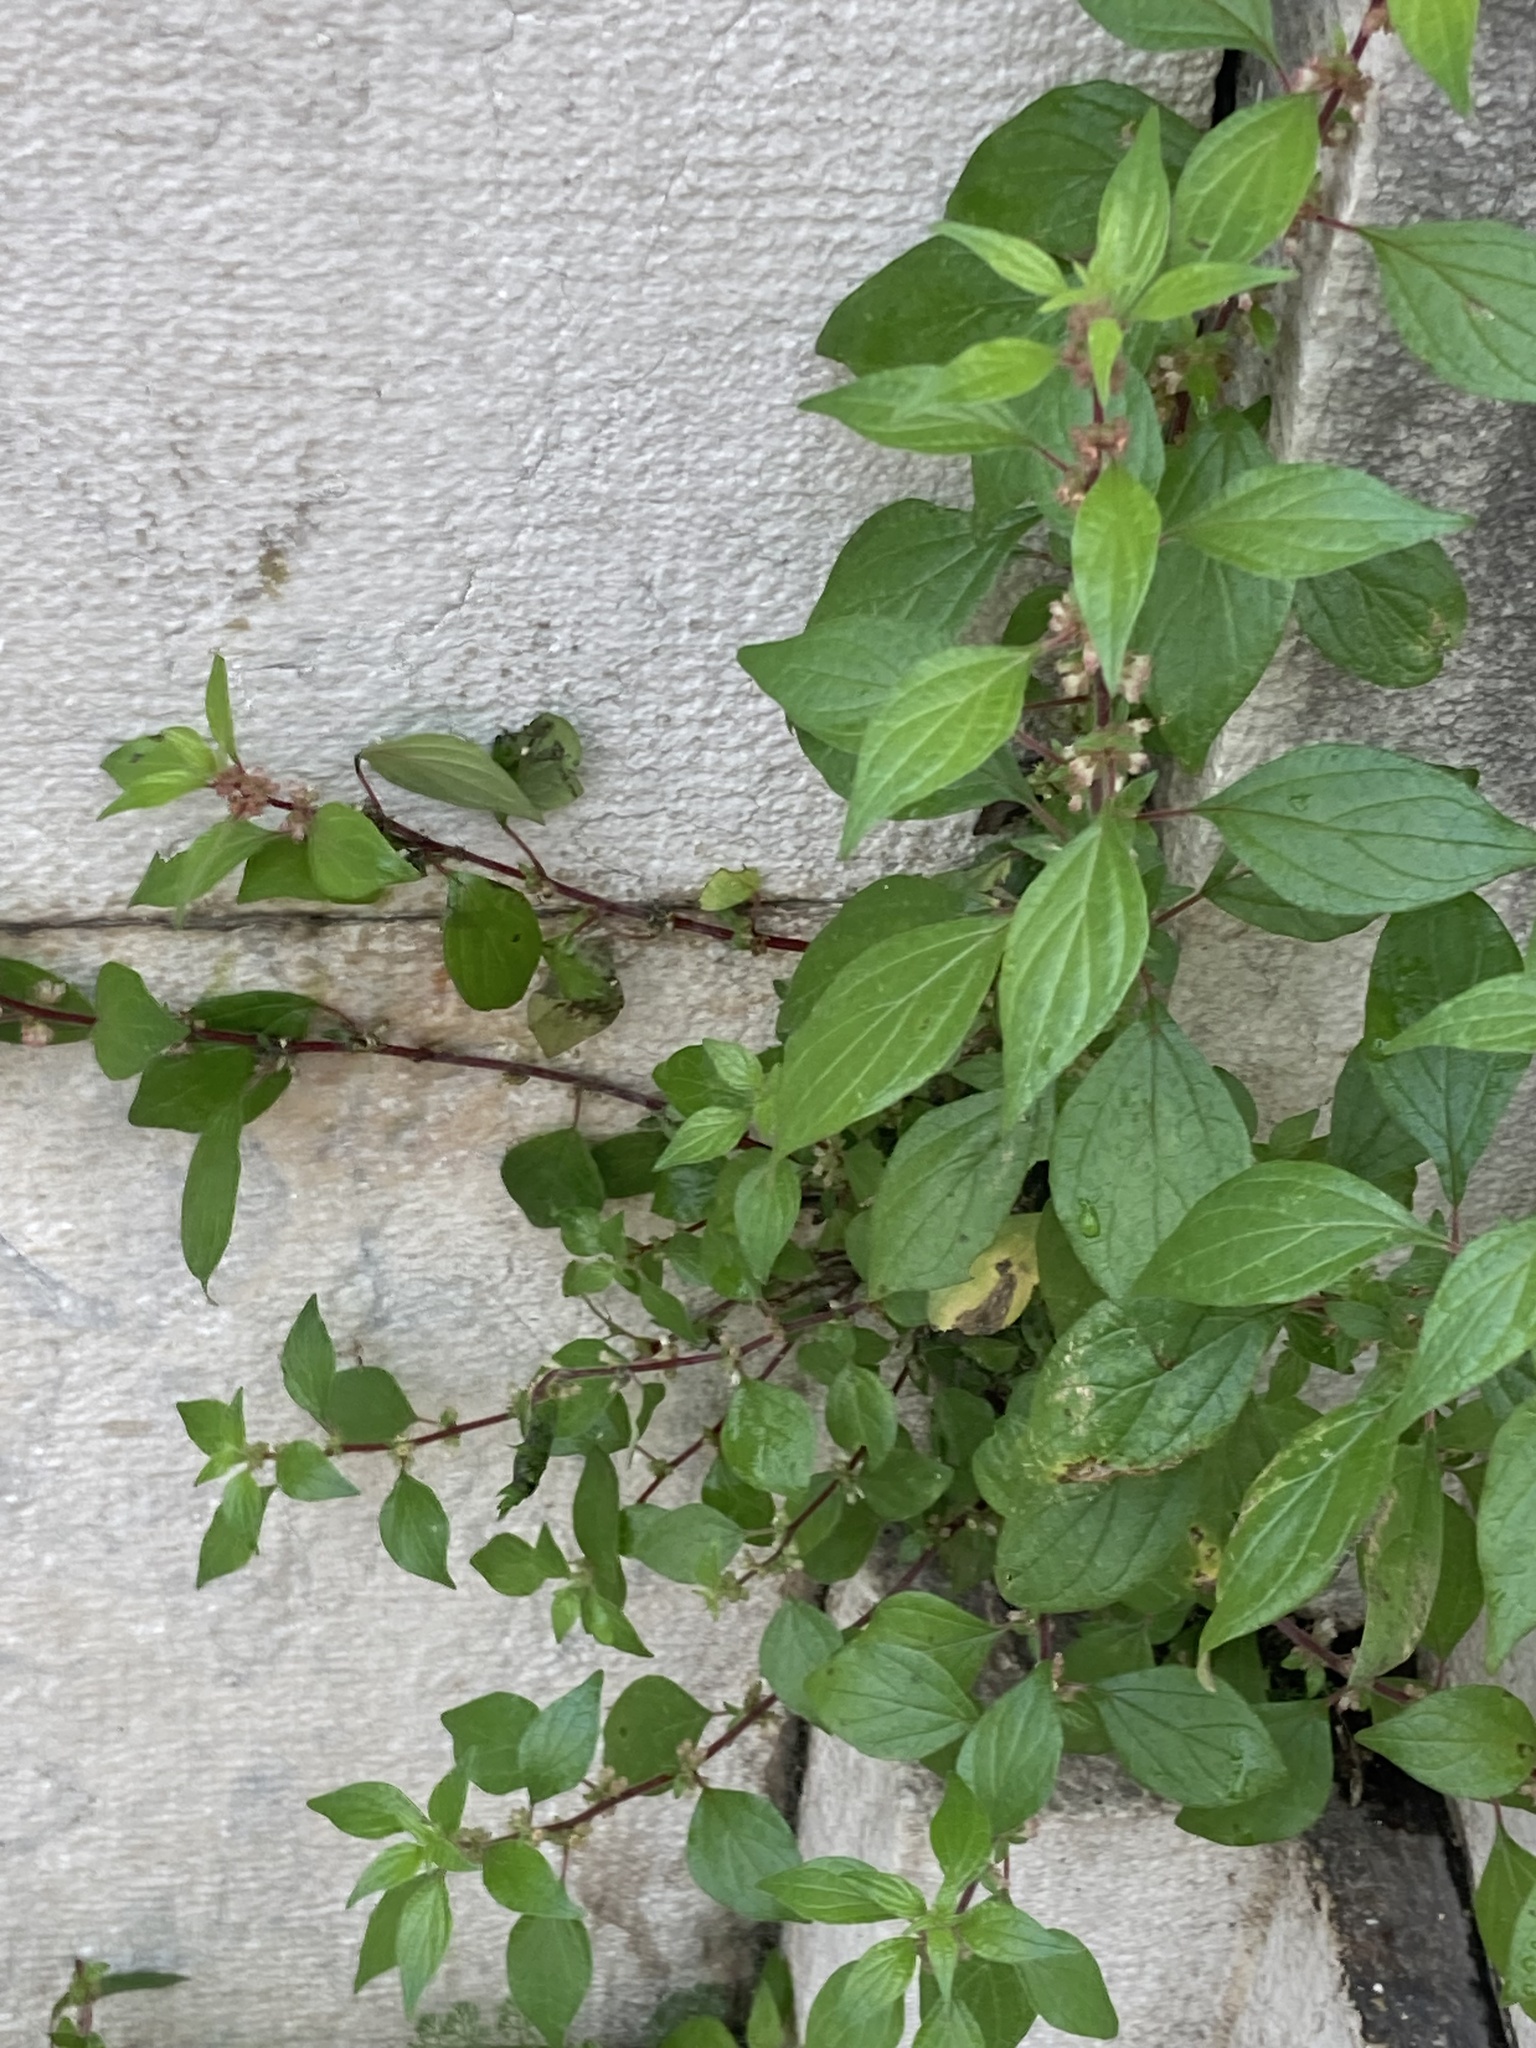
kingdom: Plantae
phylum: Tracheophyta
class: Magnoliopsida
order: Rosales
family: Urticaceae
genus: Parietaria
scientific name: Parietaria judaica
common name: Pellitory-of-the-wall
